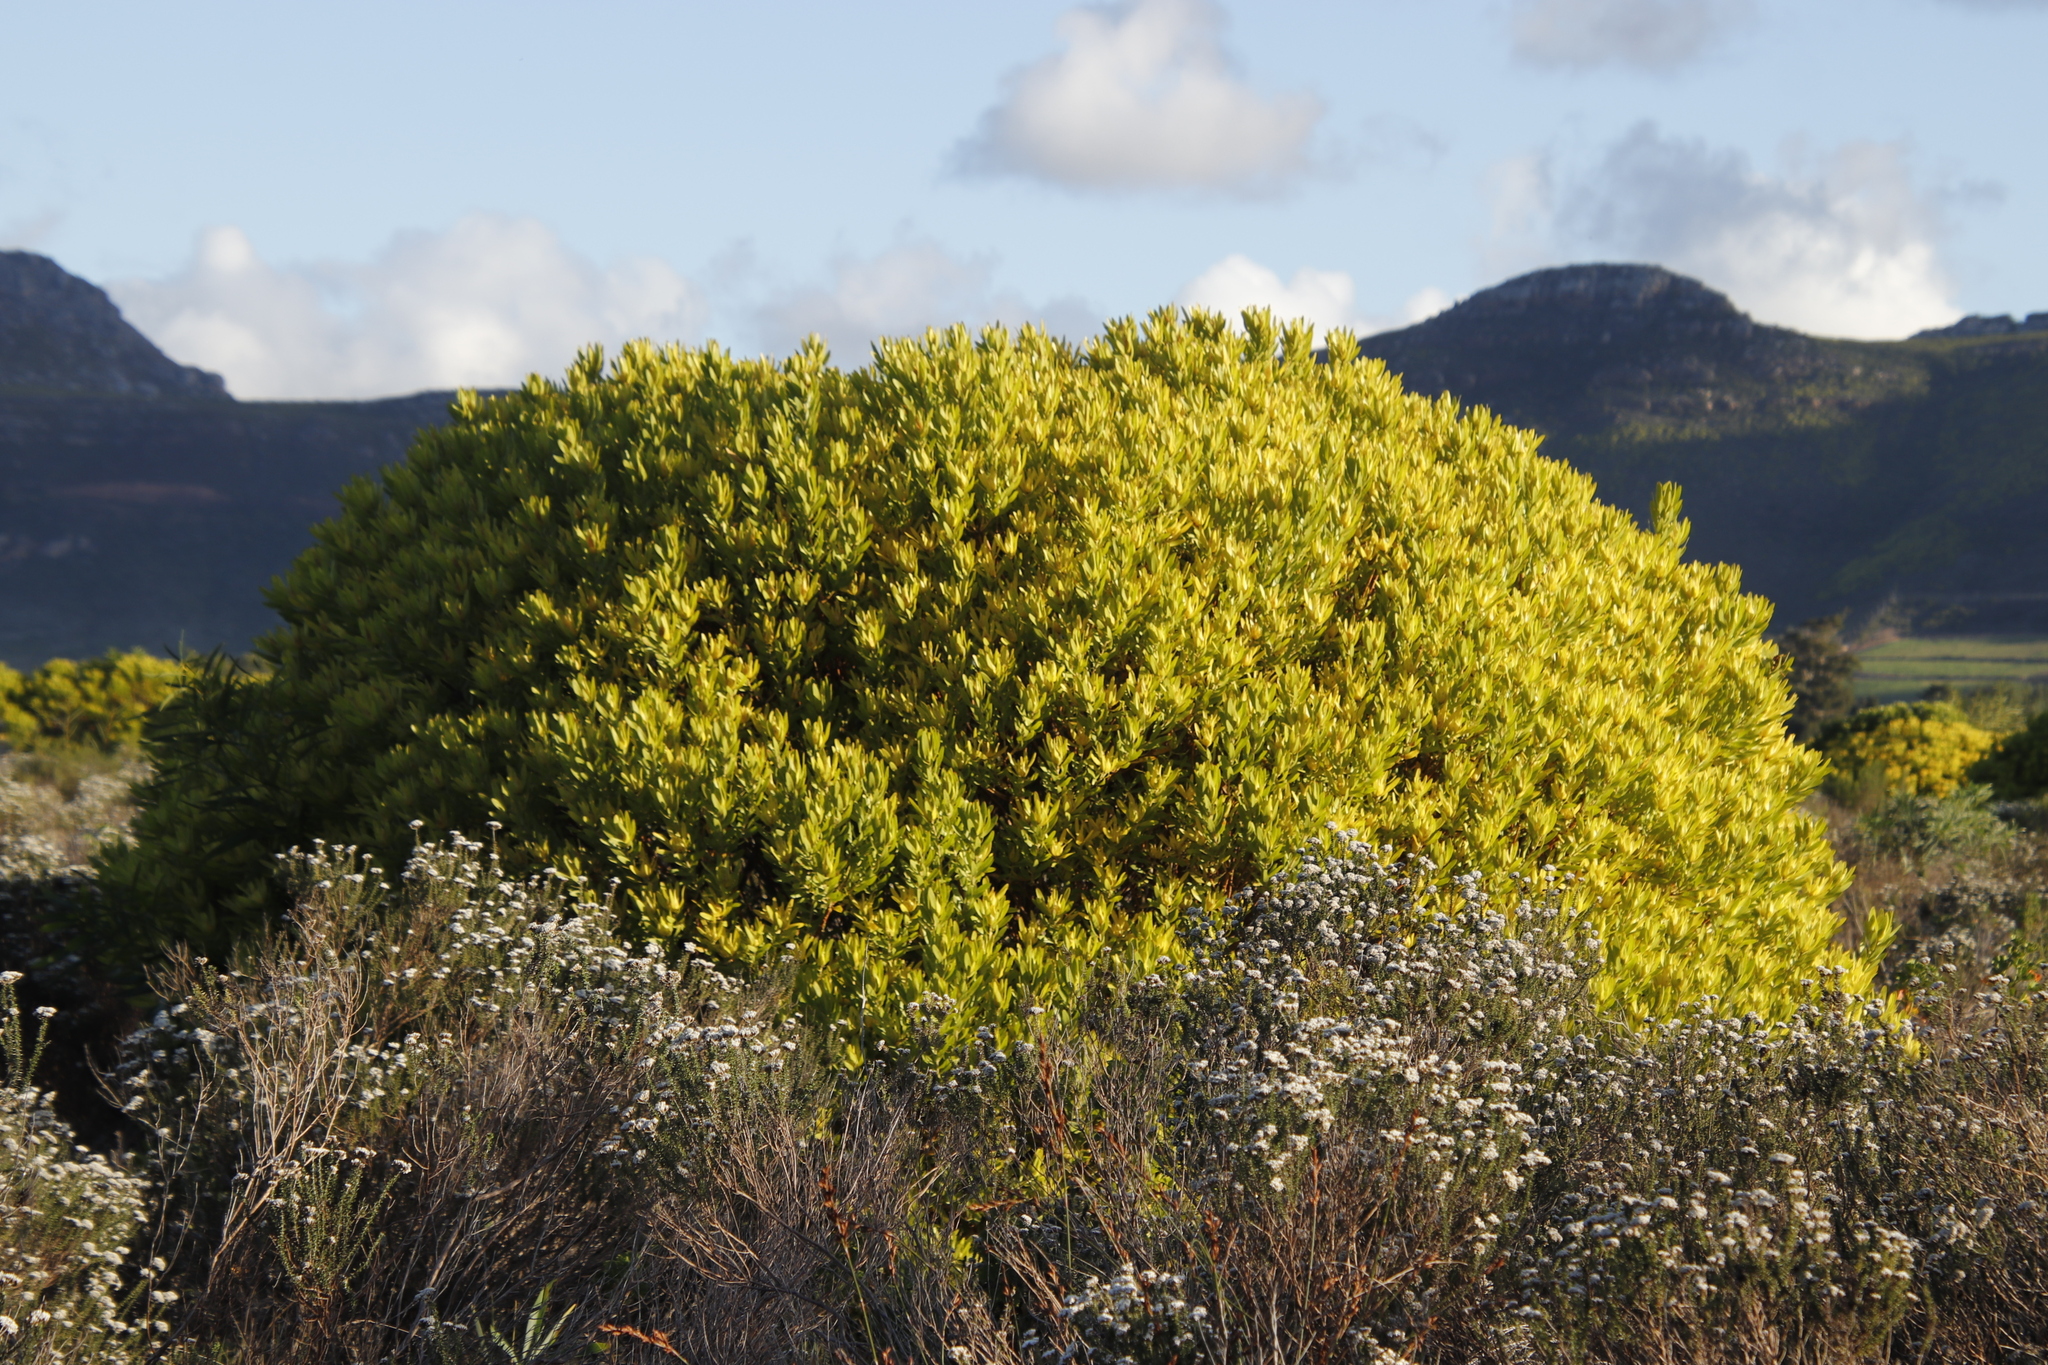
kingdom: Plantae
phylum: Tracheophyta
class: Magnoliopsida
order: Proteales
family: Proteaceae
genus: Leucadendron
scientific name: Leucadendron laureolum
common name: Golden sunshinebush
